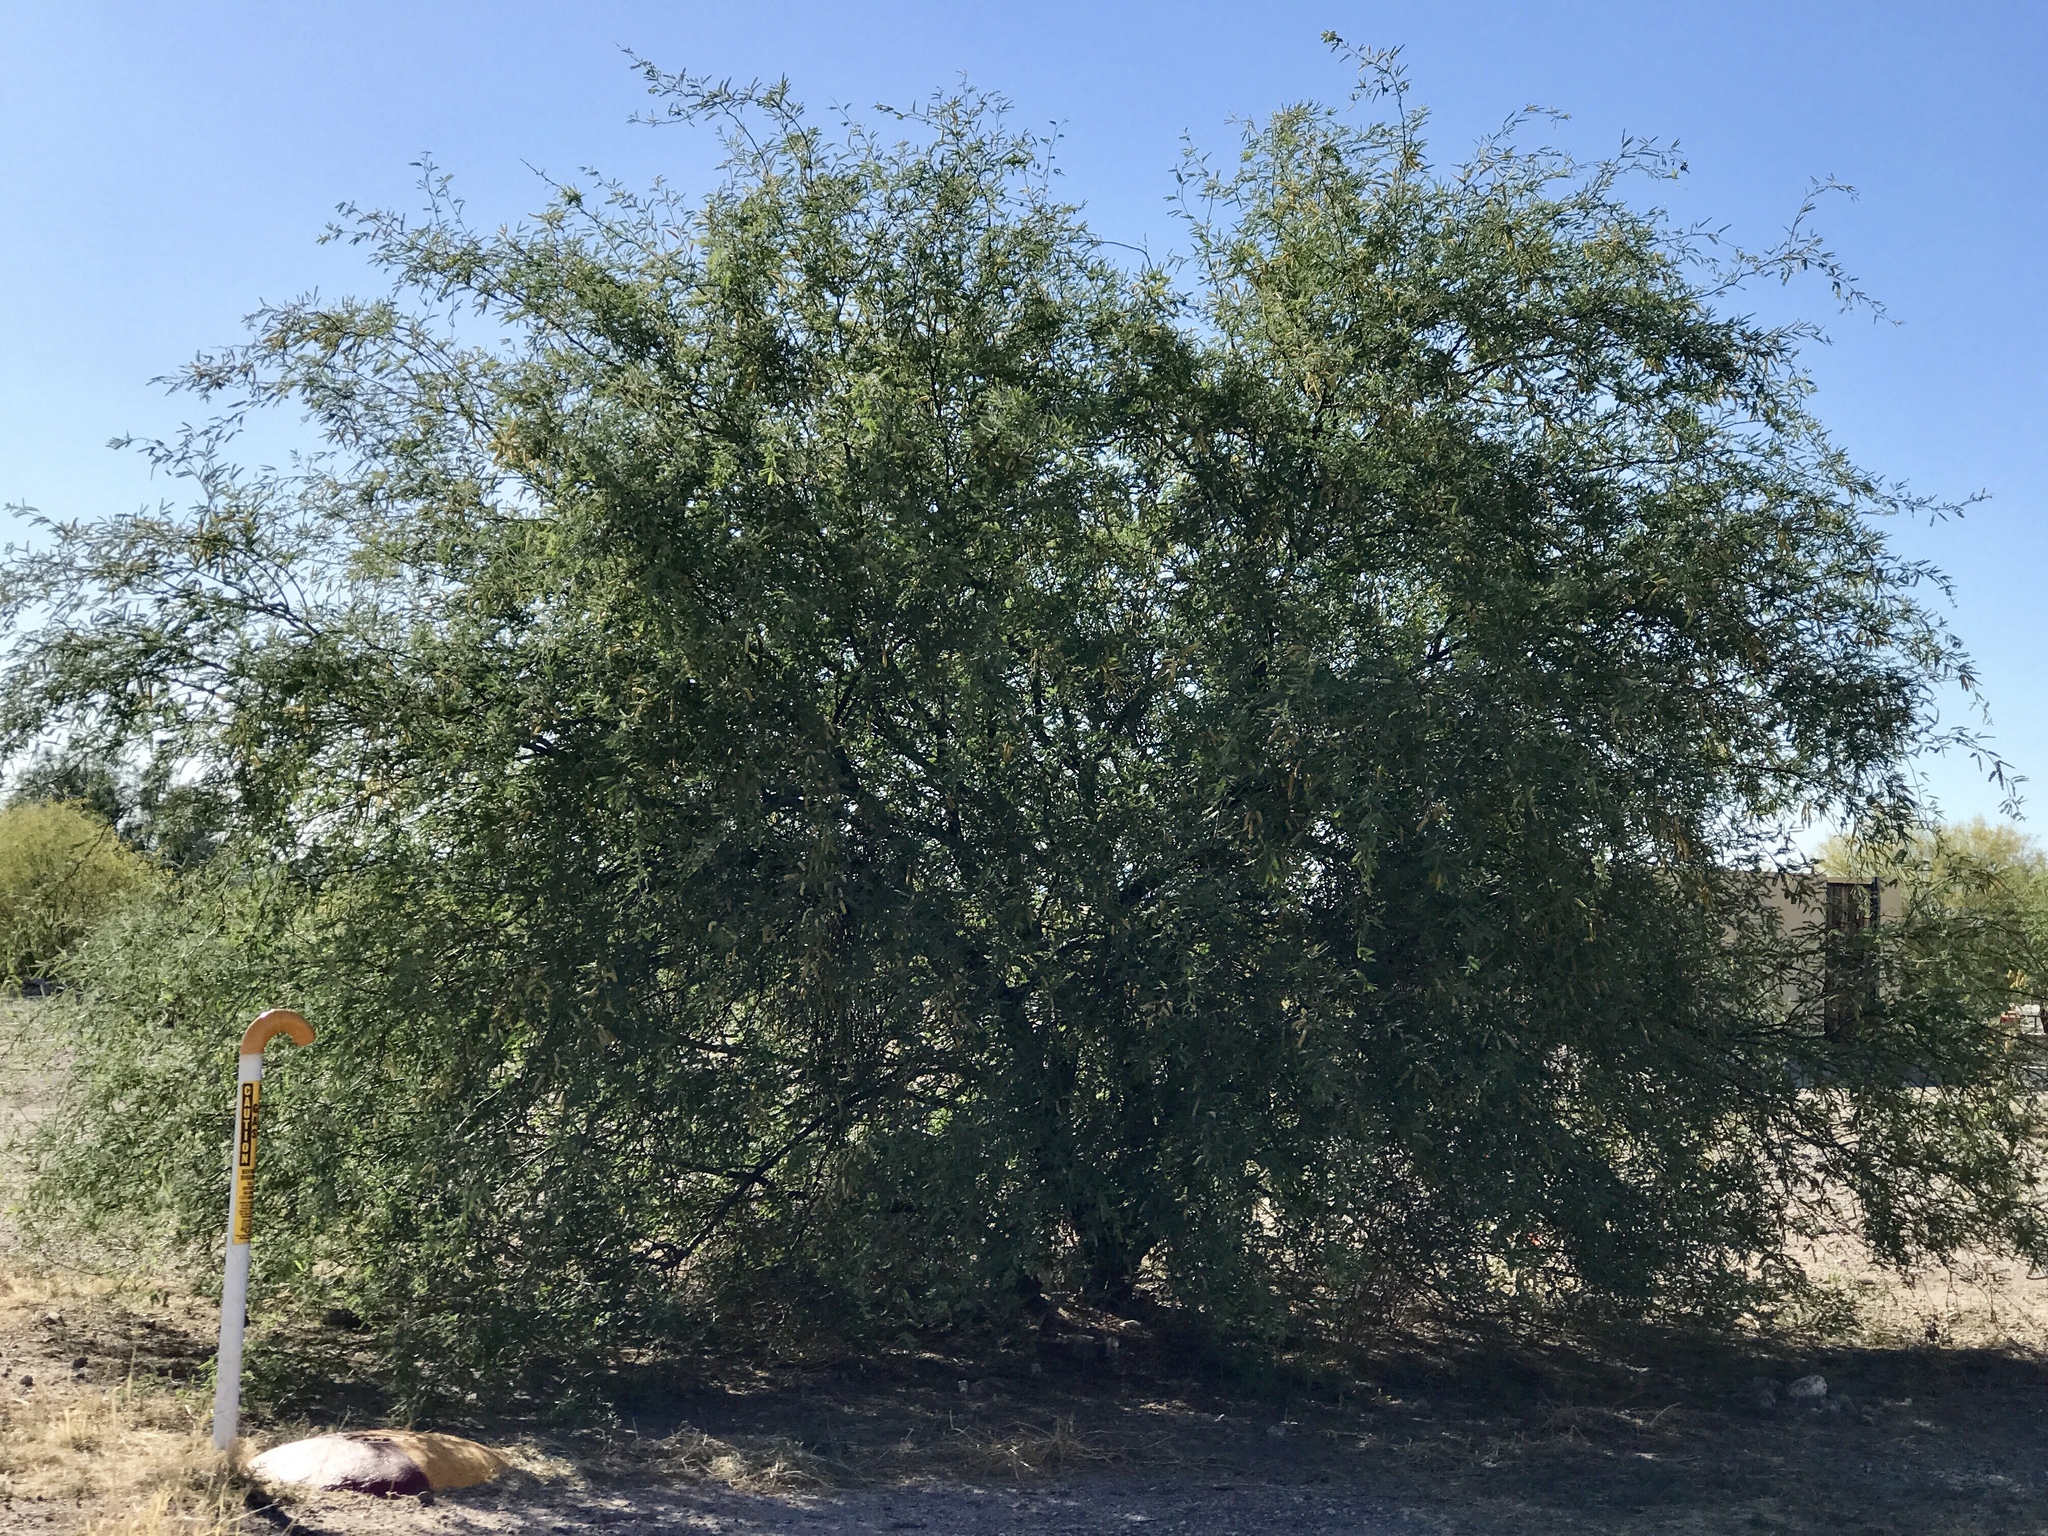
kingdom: Plantae
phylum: Tracheophyta
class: Magnoliopsida
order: Fabales
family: Fabaceae
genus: Prosopis
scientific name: Prosopis velutina
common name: Velvet mesquite
